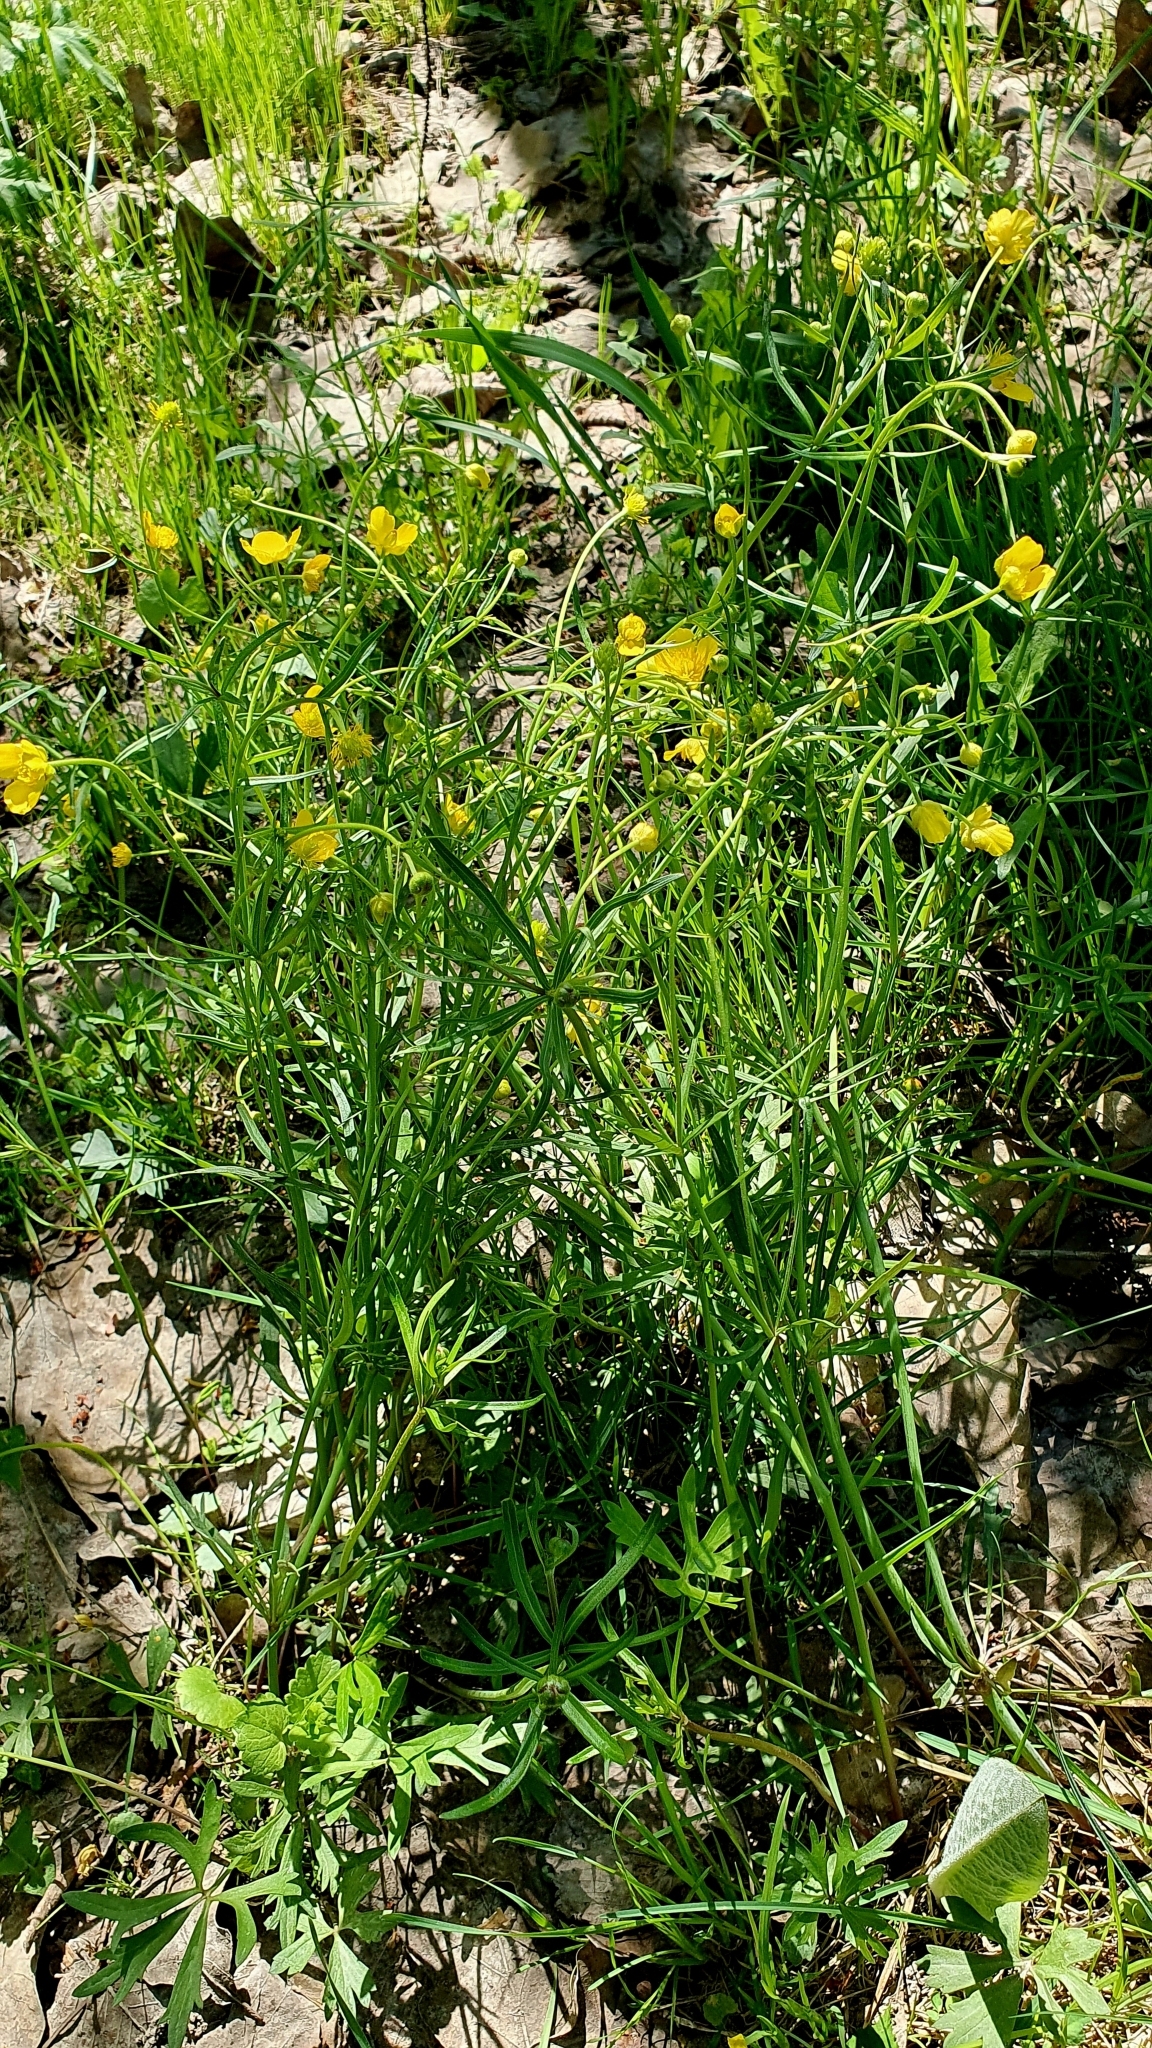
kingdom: Plantae
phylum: Tracheophyta
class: Magnoliopsida
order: Ranunculales
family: Ranunculaceae
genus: Ranunculus
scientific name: Ranunculus auricomus
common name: Goldilocks buttercup
